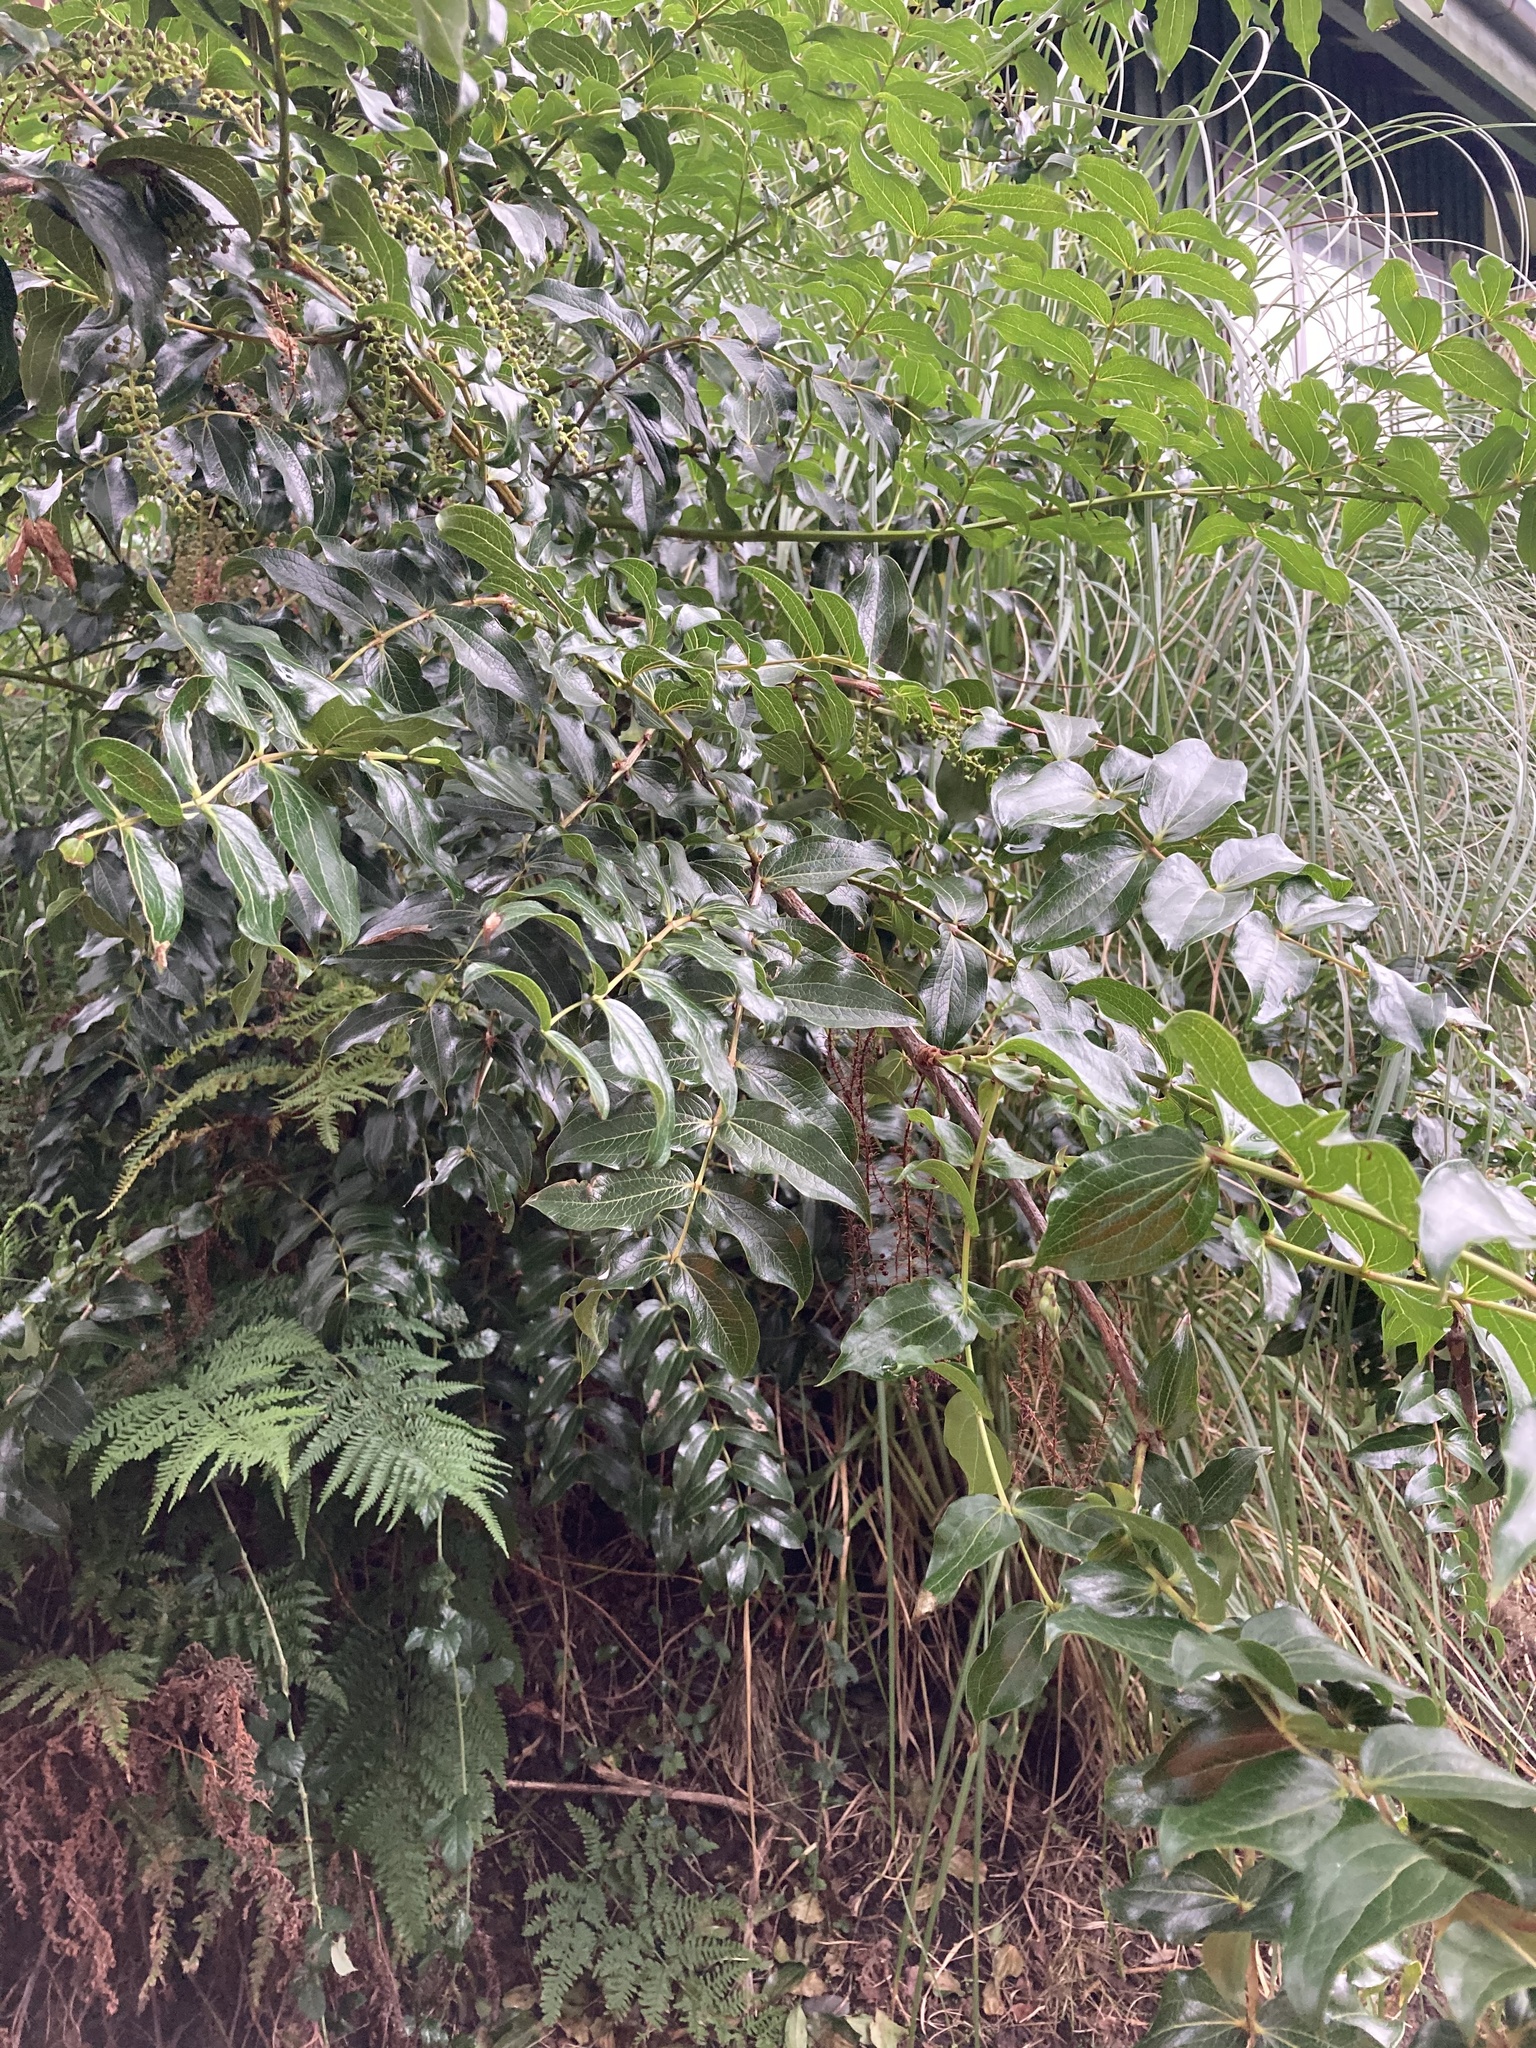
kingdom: Plantae
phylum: Tracheophyta
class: Magnoliopsida
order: Cucurbitales
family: Coriariaceae
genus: Coriaria
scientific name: Coriaria arborea
